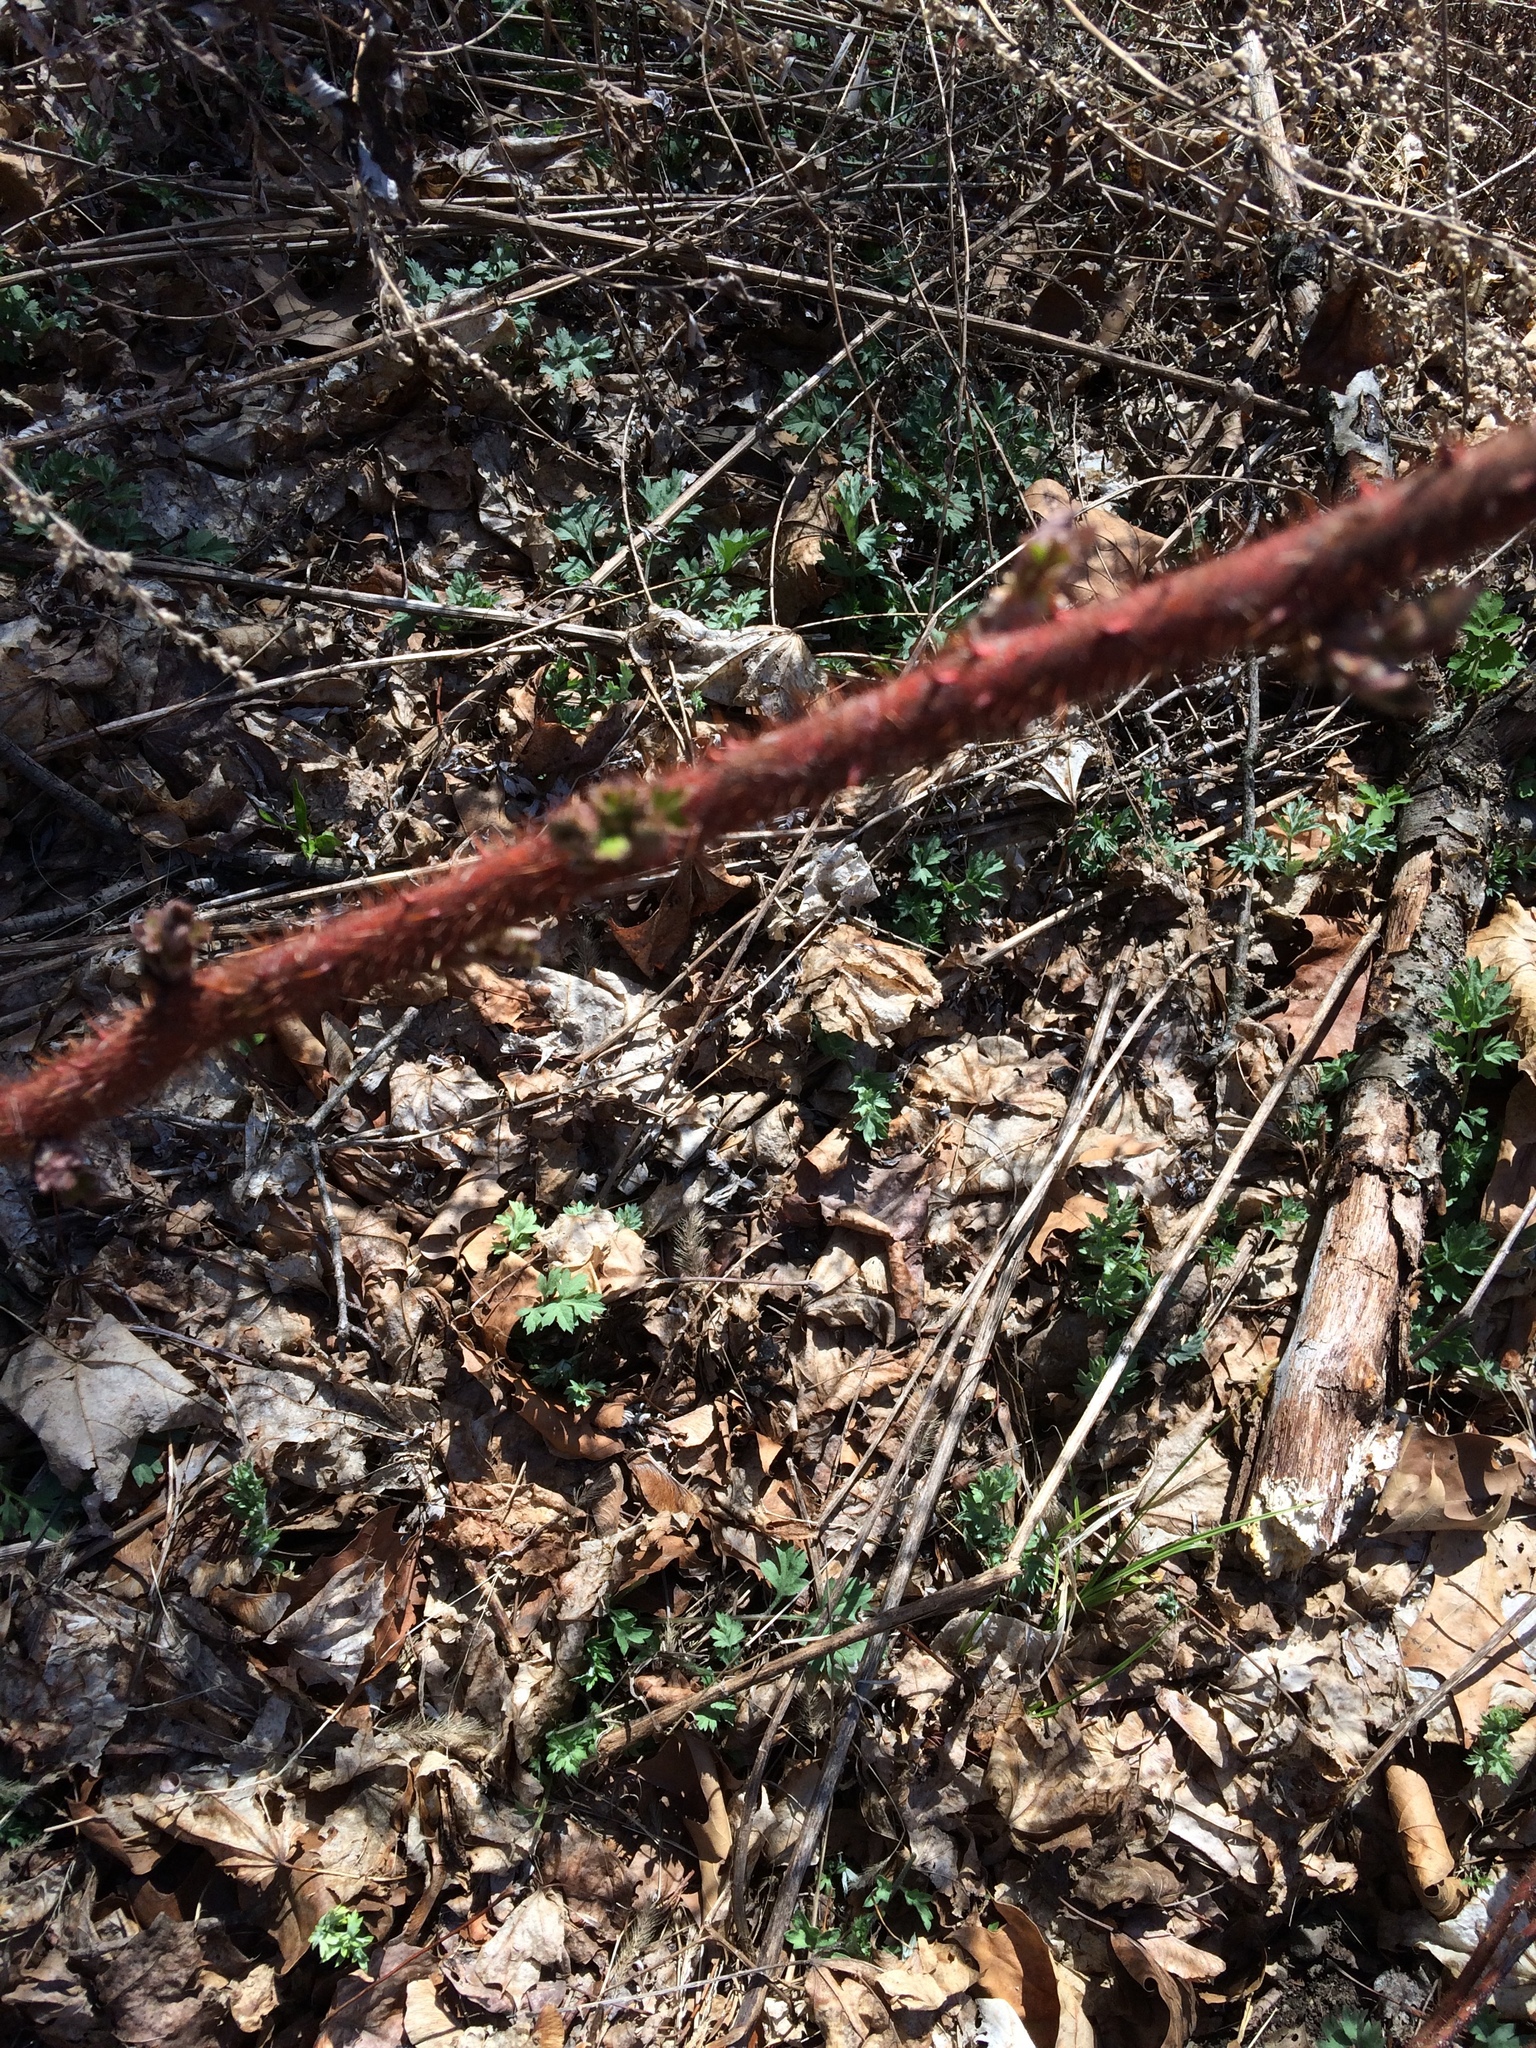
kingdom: Plantae
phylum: Tracheophyta
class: Magnoliopsida
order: Rosales
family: Rosaceae
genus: Rubus
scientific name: Rubus phoenicolasius
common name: Japanese wineberry
